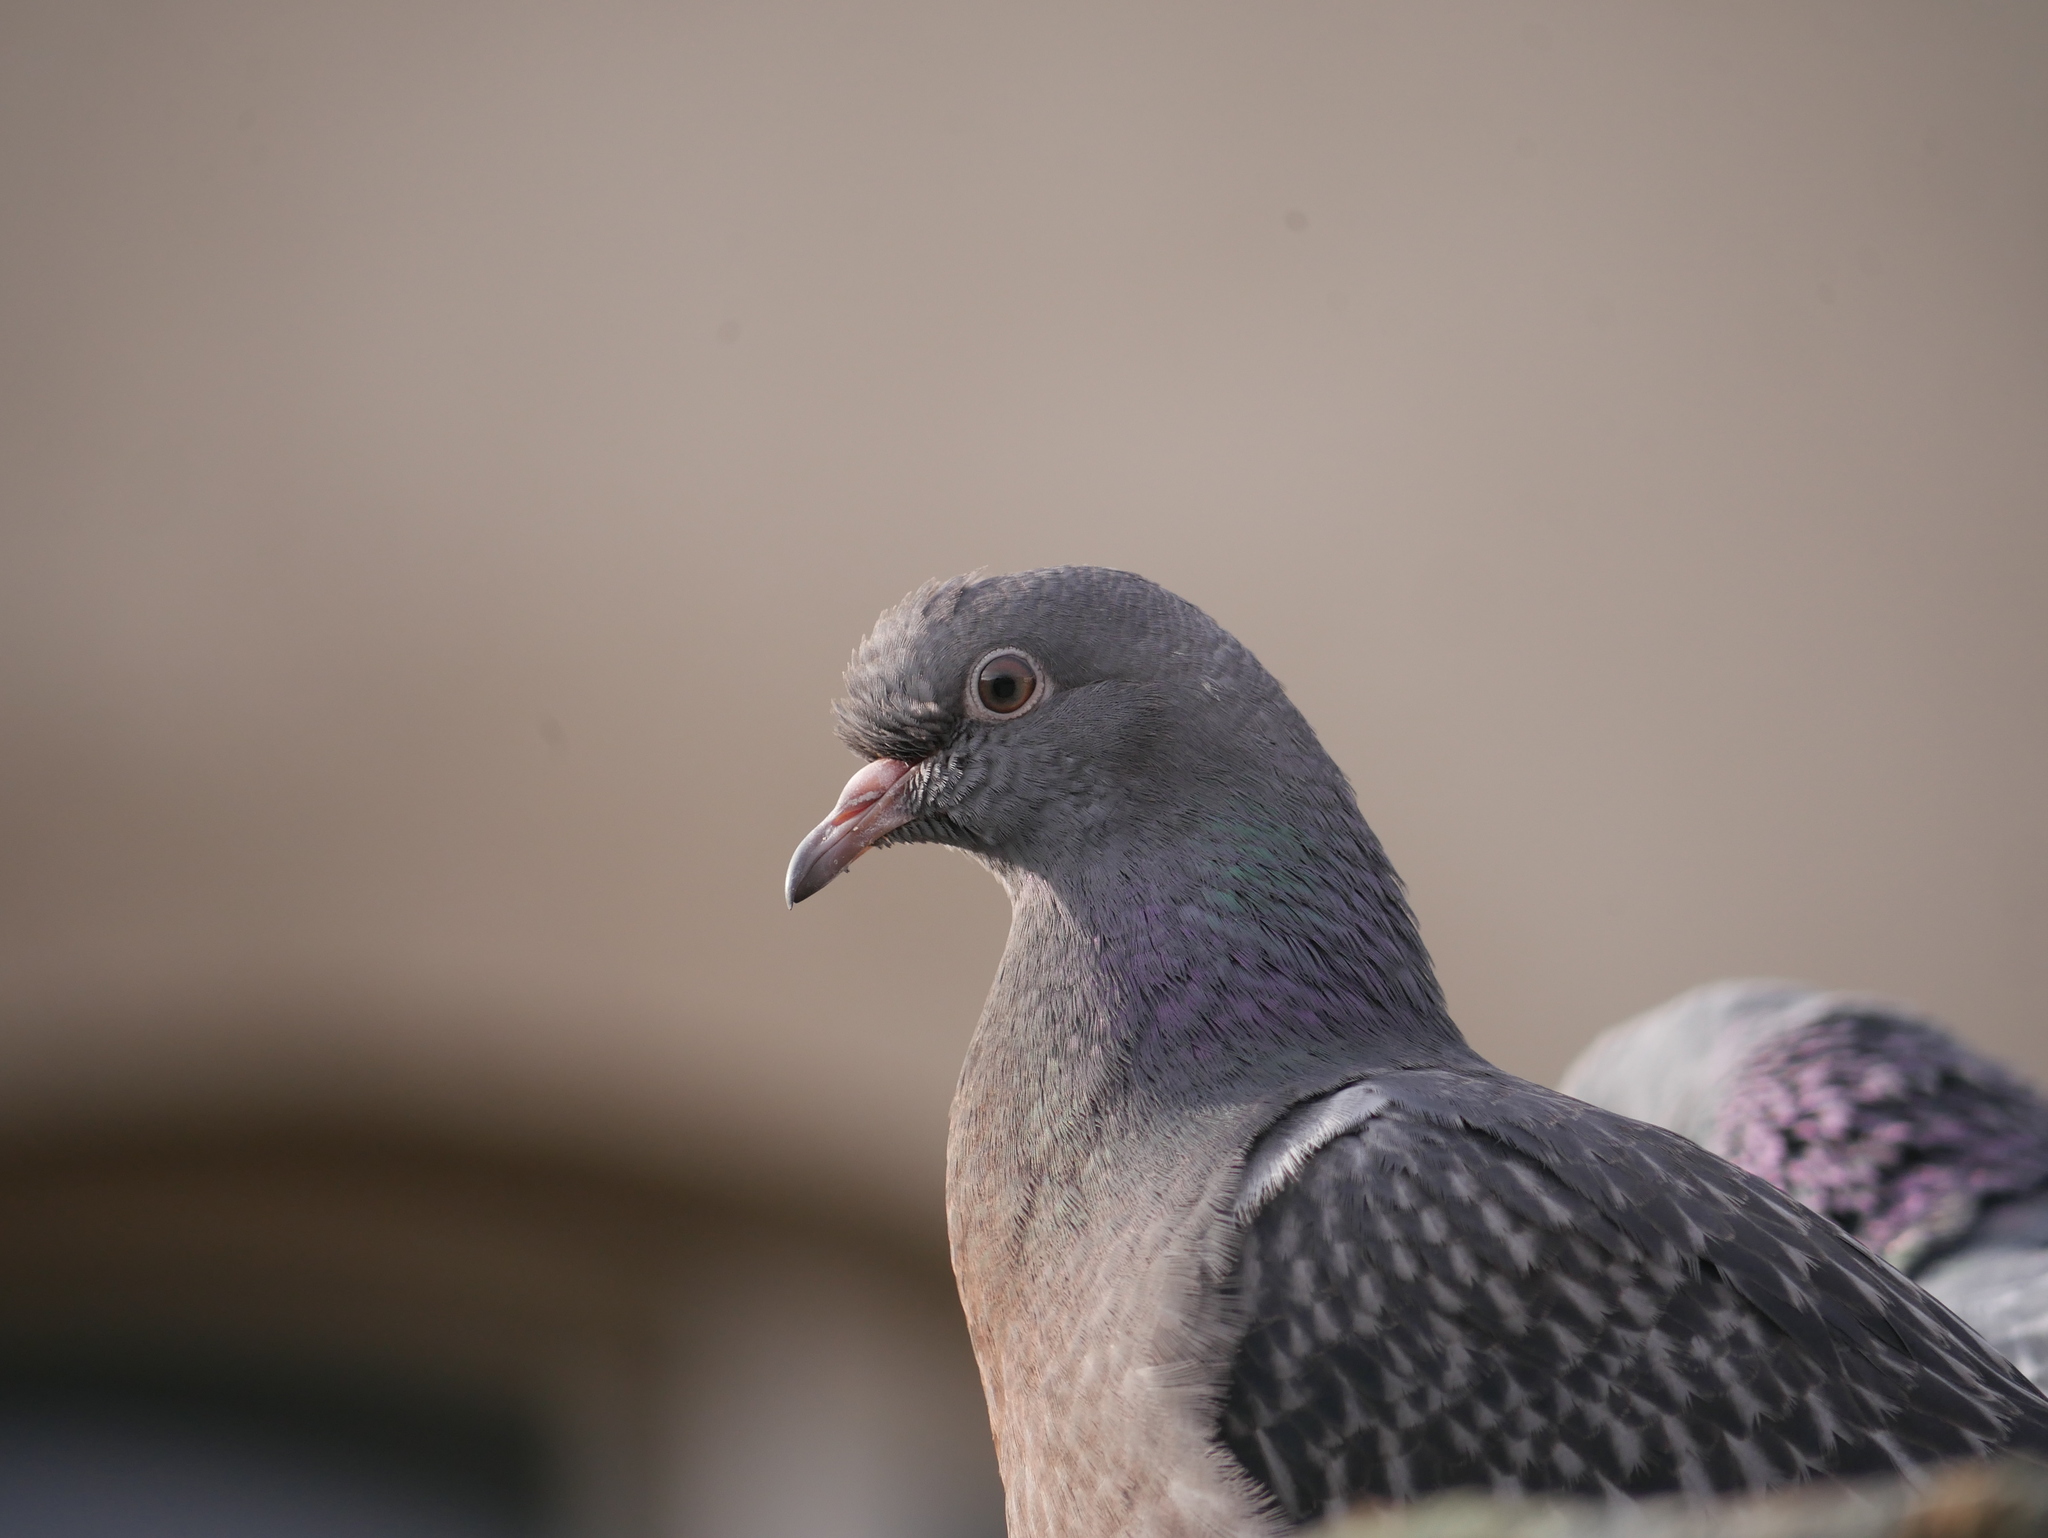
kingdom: Animalia
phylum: Chordata
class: Aves
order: Columbiformes
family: Columbidae
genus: Columba
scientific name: Columba livia
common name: Rock pigeon
